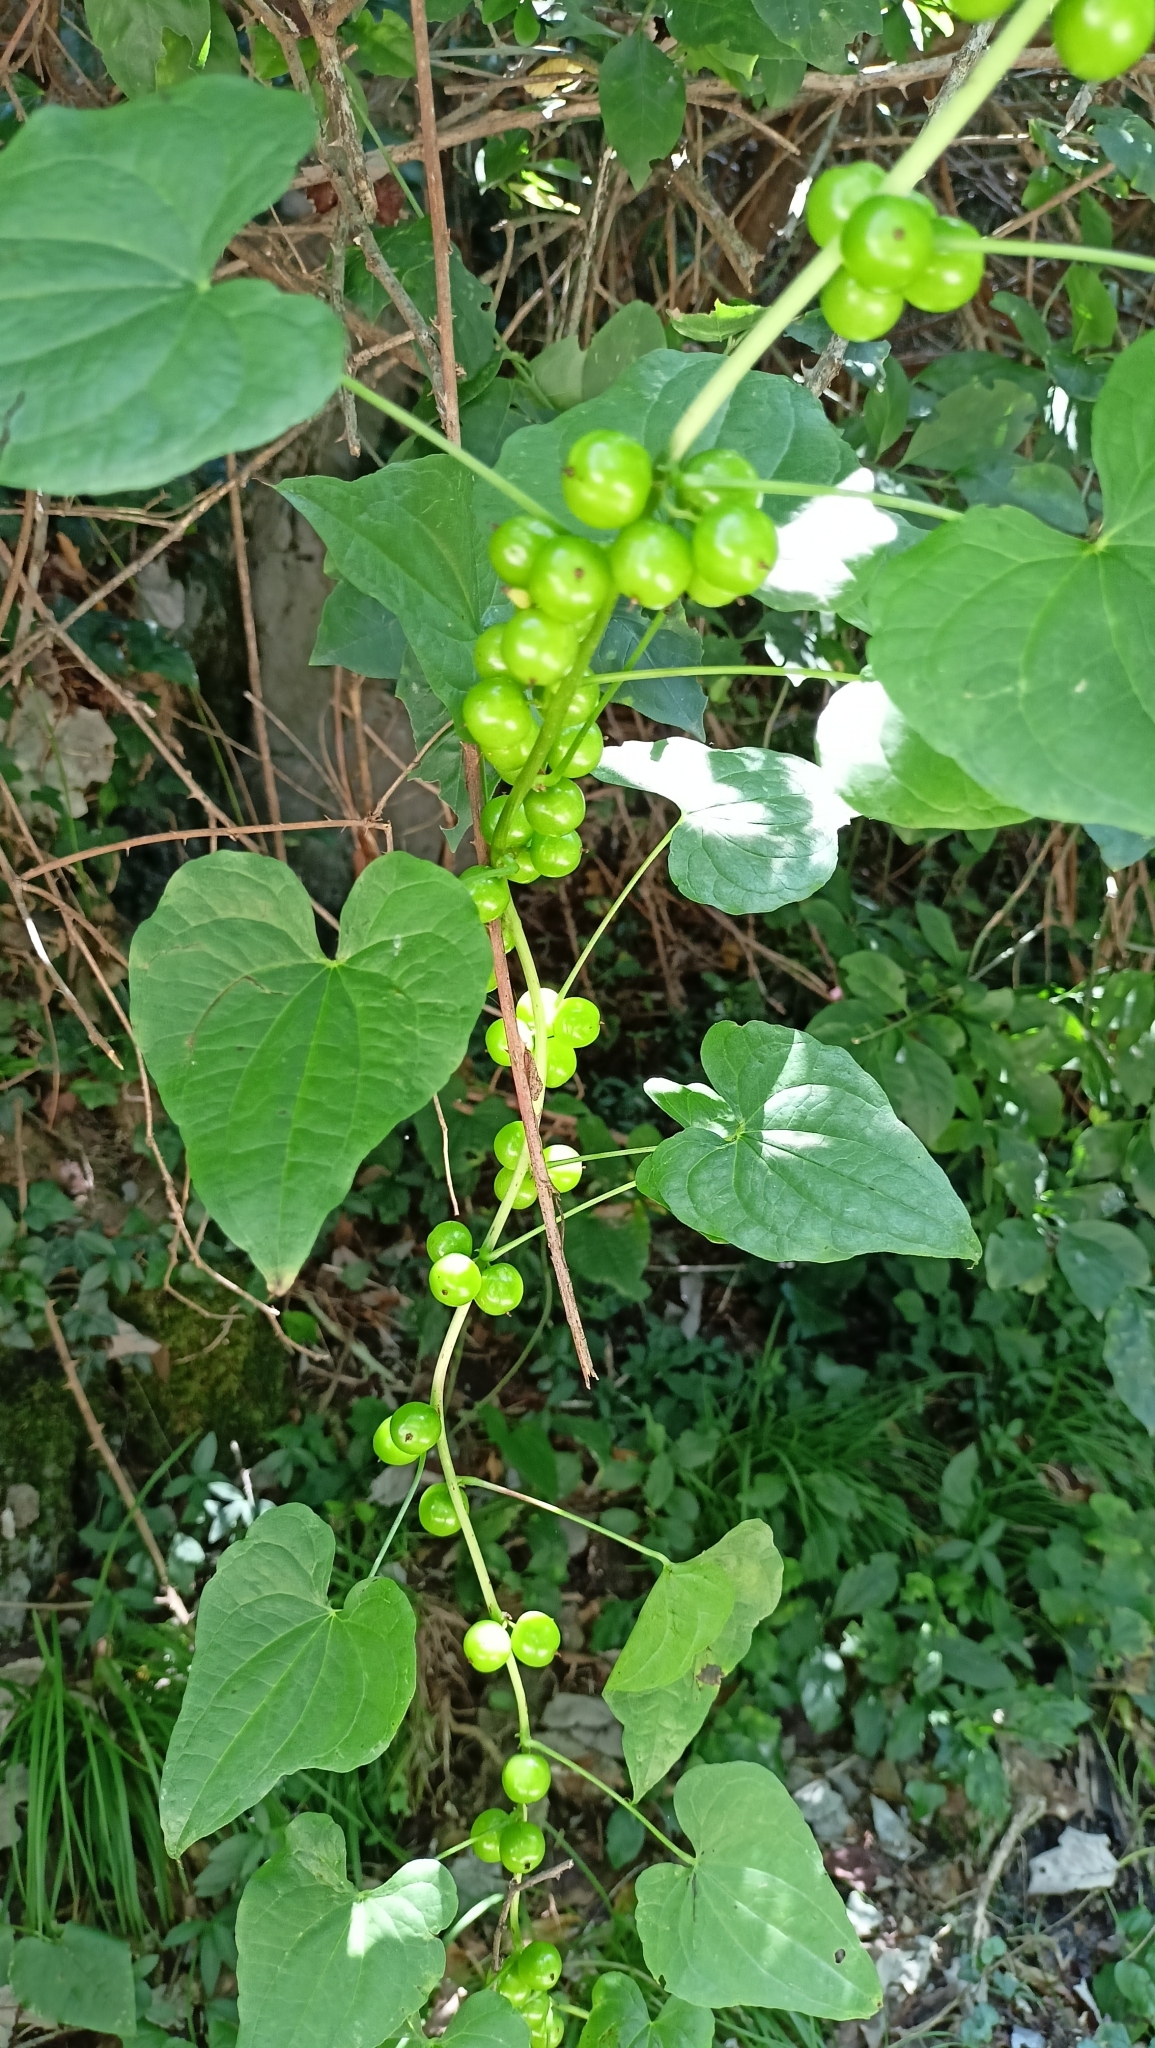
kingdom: Plantae
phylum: Tracheophyta
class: Liliopsida
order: Dioscoreales
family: Dioscoreaceae
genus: Dioscorea
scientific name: Dioscorea communis
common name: Black-bindweed
